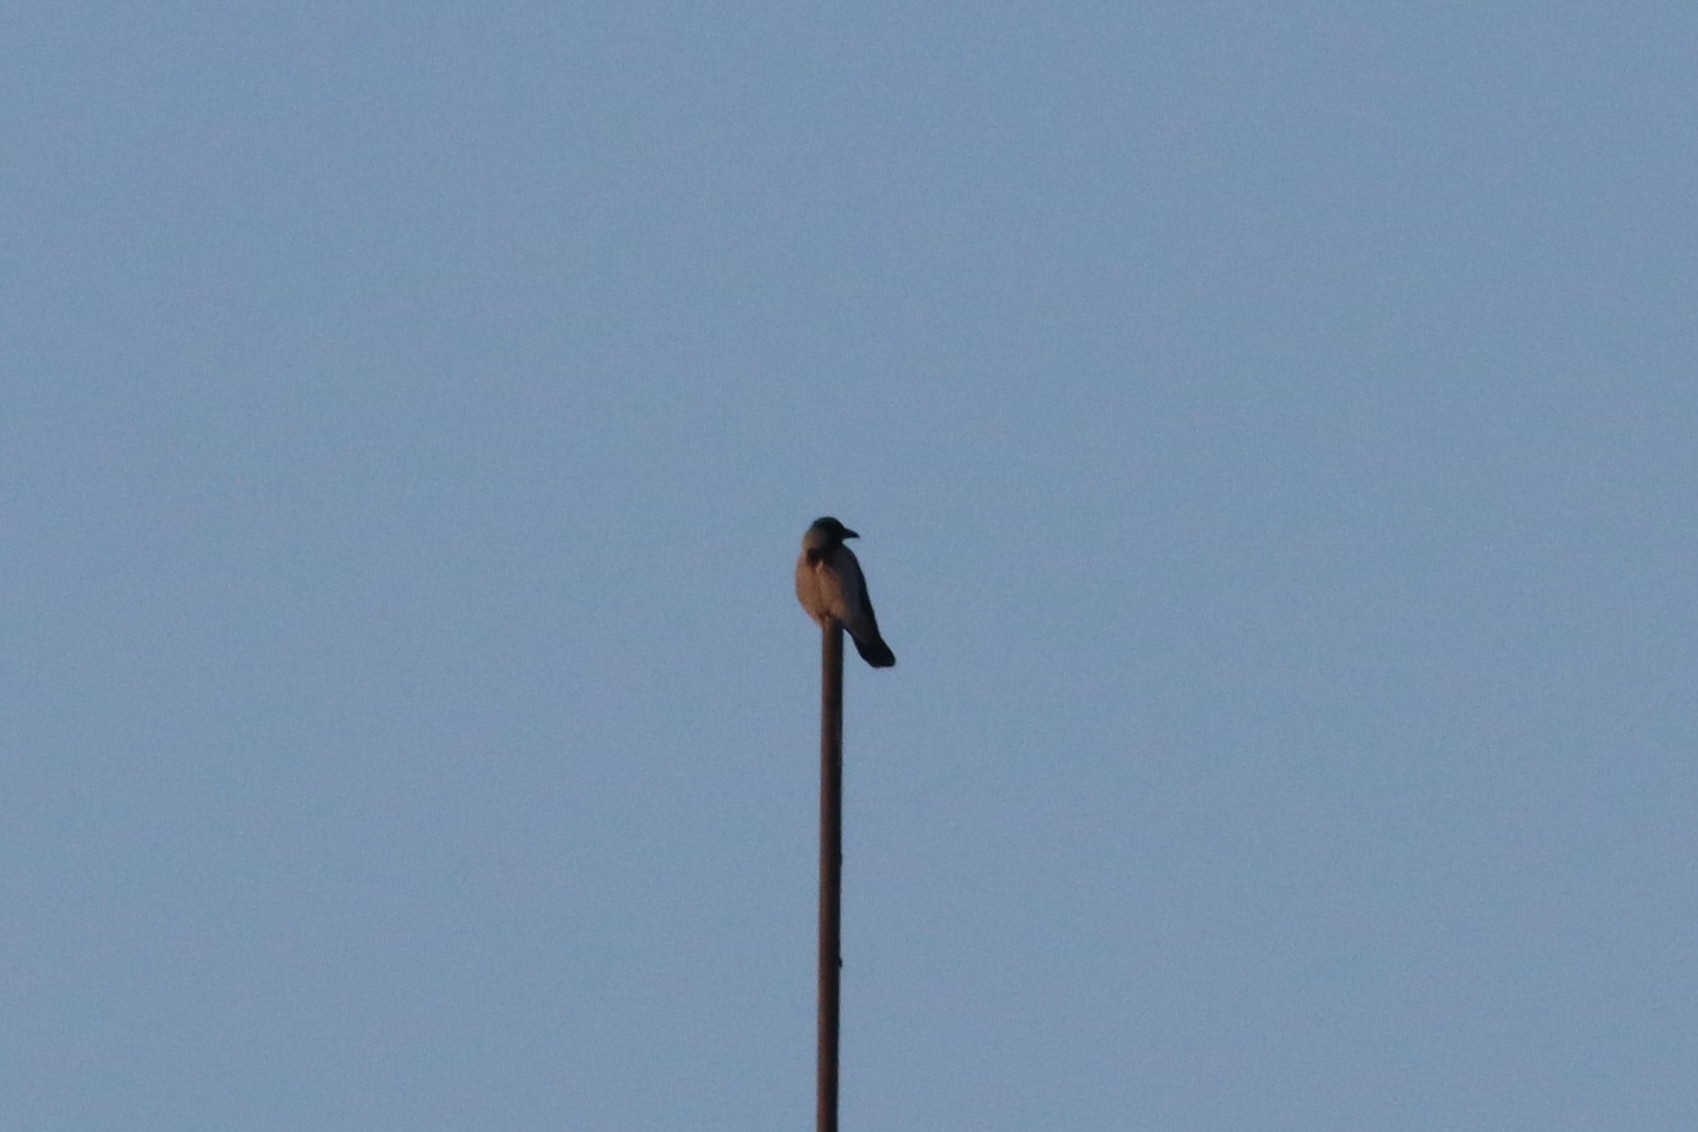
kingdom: Animalia
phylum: Chordata
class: Aves
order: Passeriformes
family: Corvidae
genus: Corvus
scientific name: Corvus cornix
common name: Hooded crow
